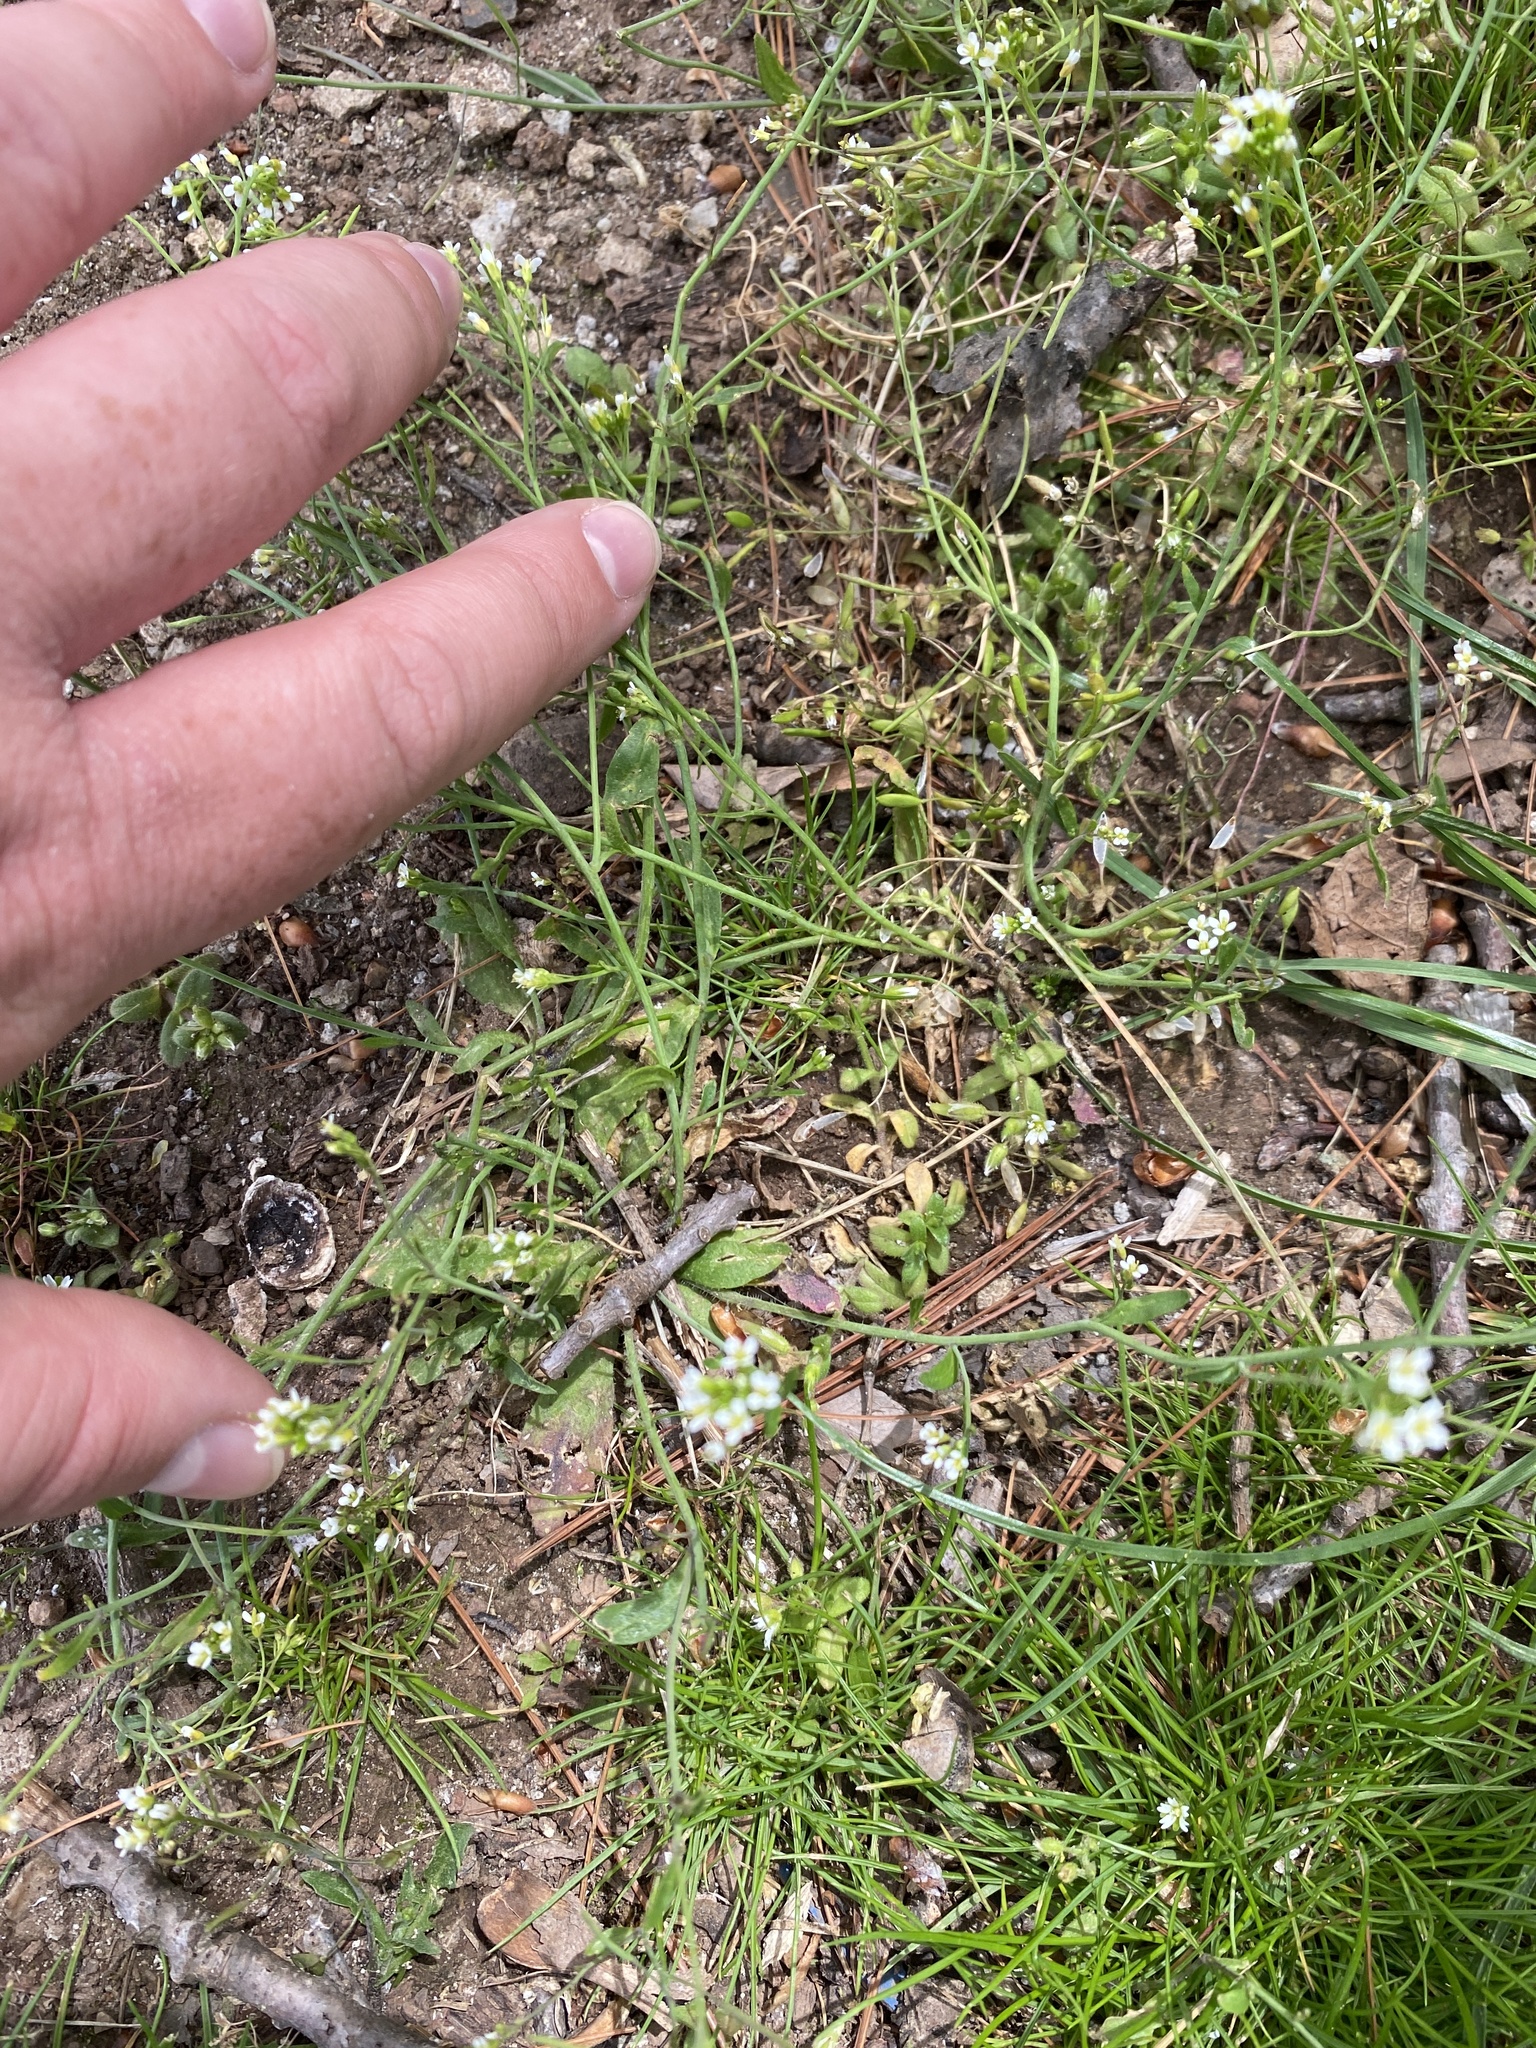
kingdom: Plantae
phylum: Tracheophyta
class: Magnoliopsida
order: Brassicales
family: Brassicaceae
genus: Arabidopsis
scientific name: Arabidopsis thaliana
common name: Thale cress
